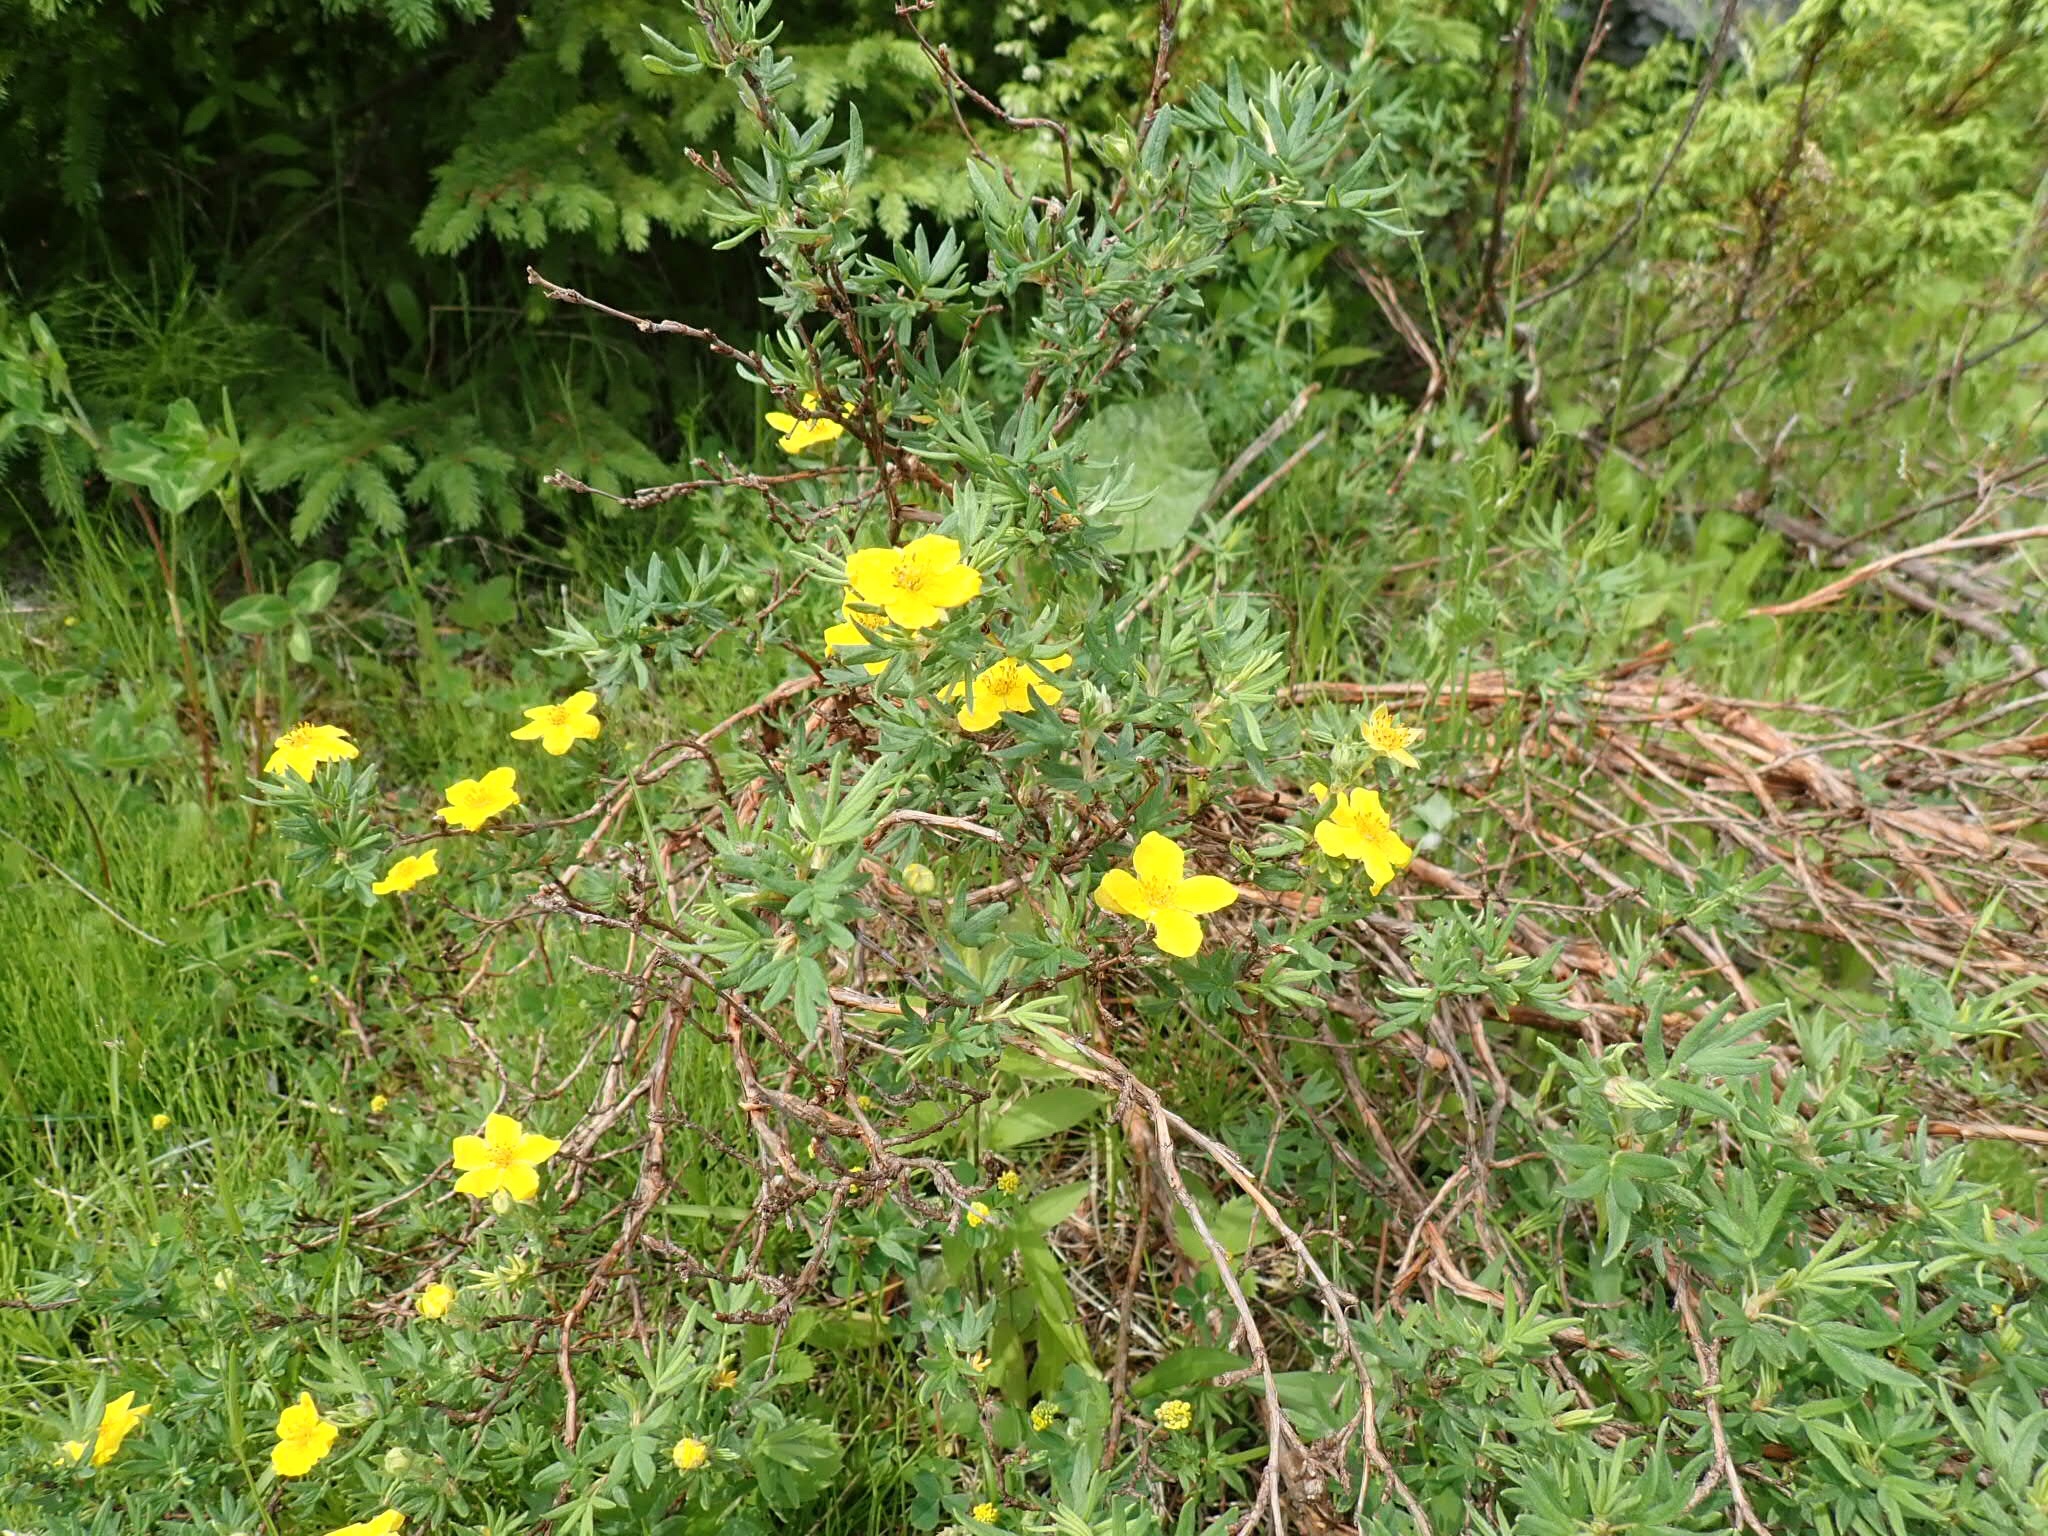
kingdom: Plantae
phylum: Tracheophyta
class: Magnoliopsida
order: Rosales
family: Rosaceae
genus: Dasiphora
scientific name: Dasiphora fruticosa
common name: Shrubby cinquefoil
